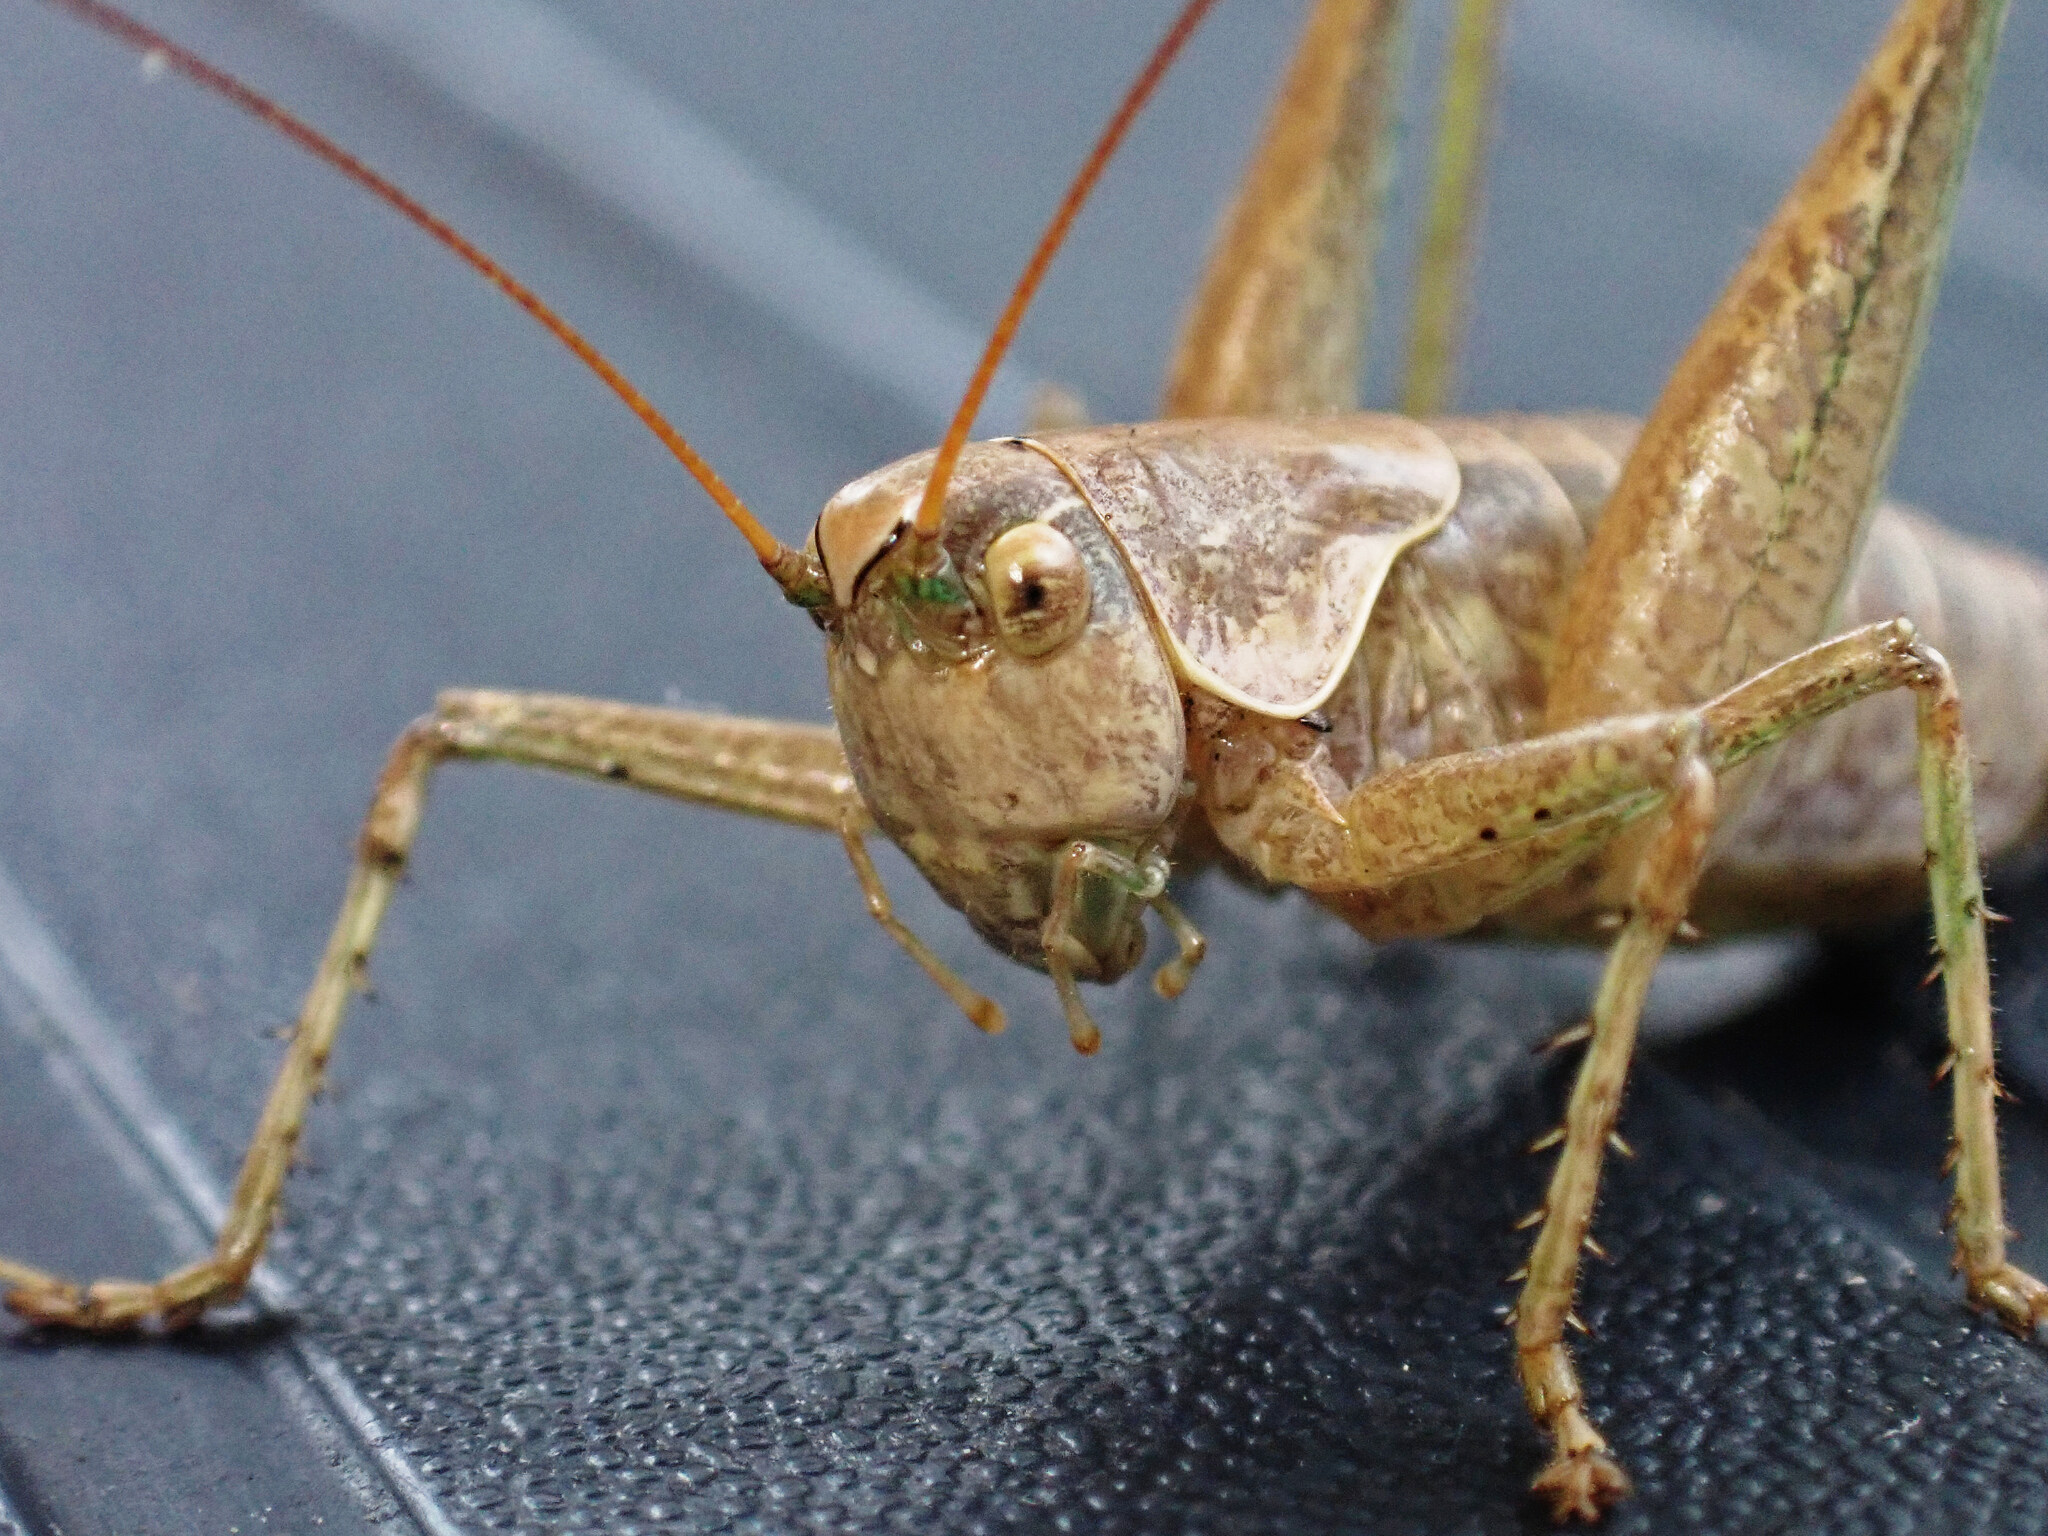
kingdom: Animalia
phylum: Arthropoda
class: Insecta
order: Orthoptera
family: Tettigoniidae
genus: Rhacocleis
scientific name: Rhacocleis annulata
